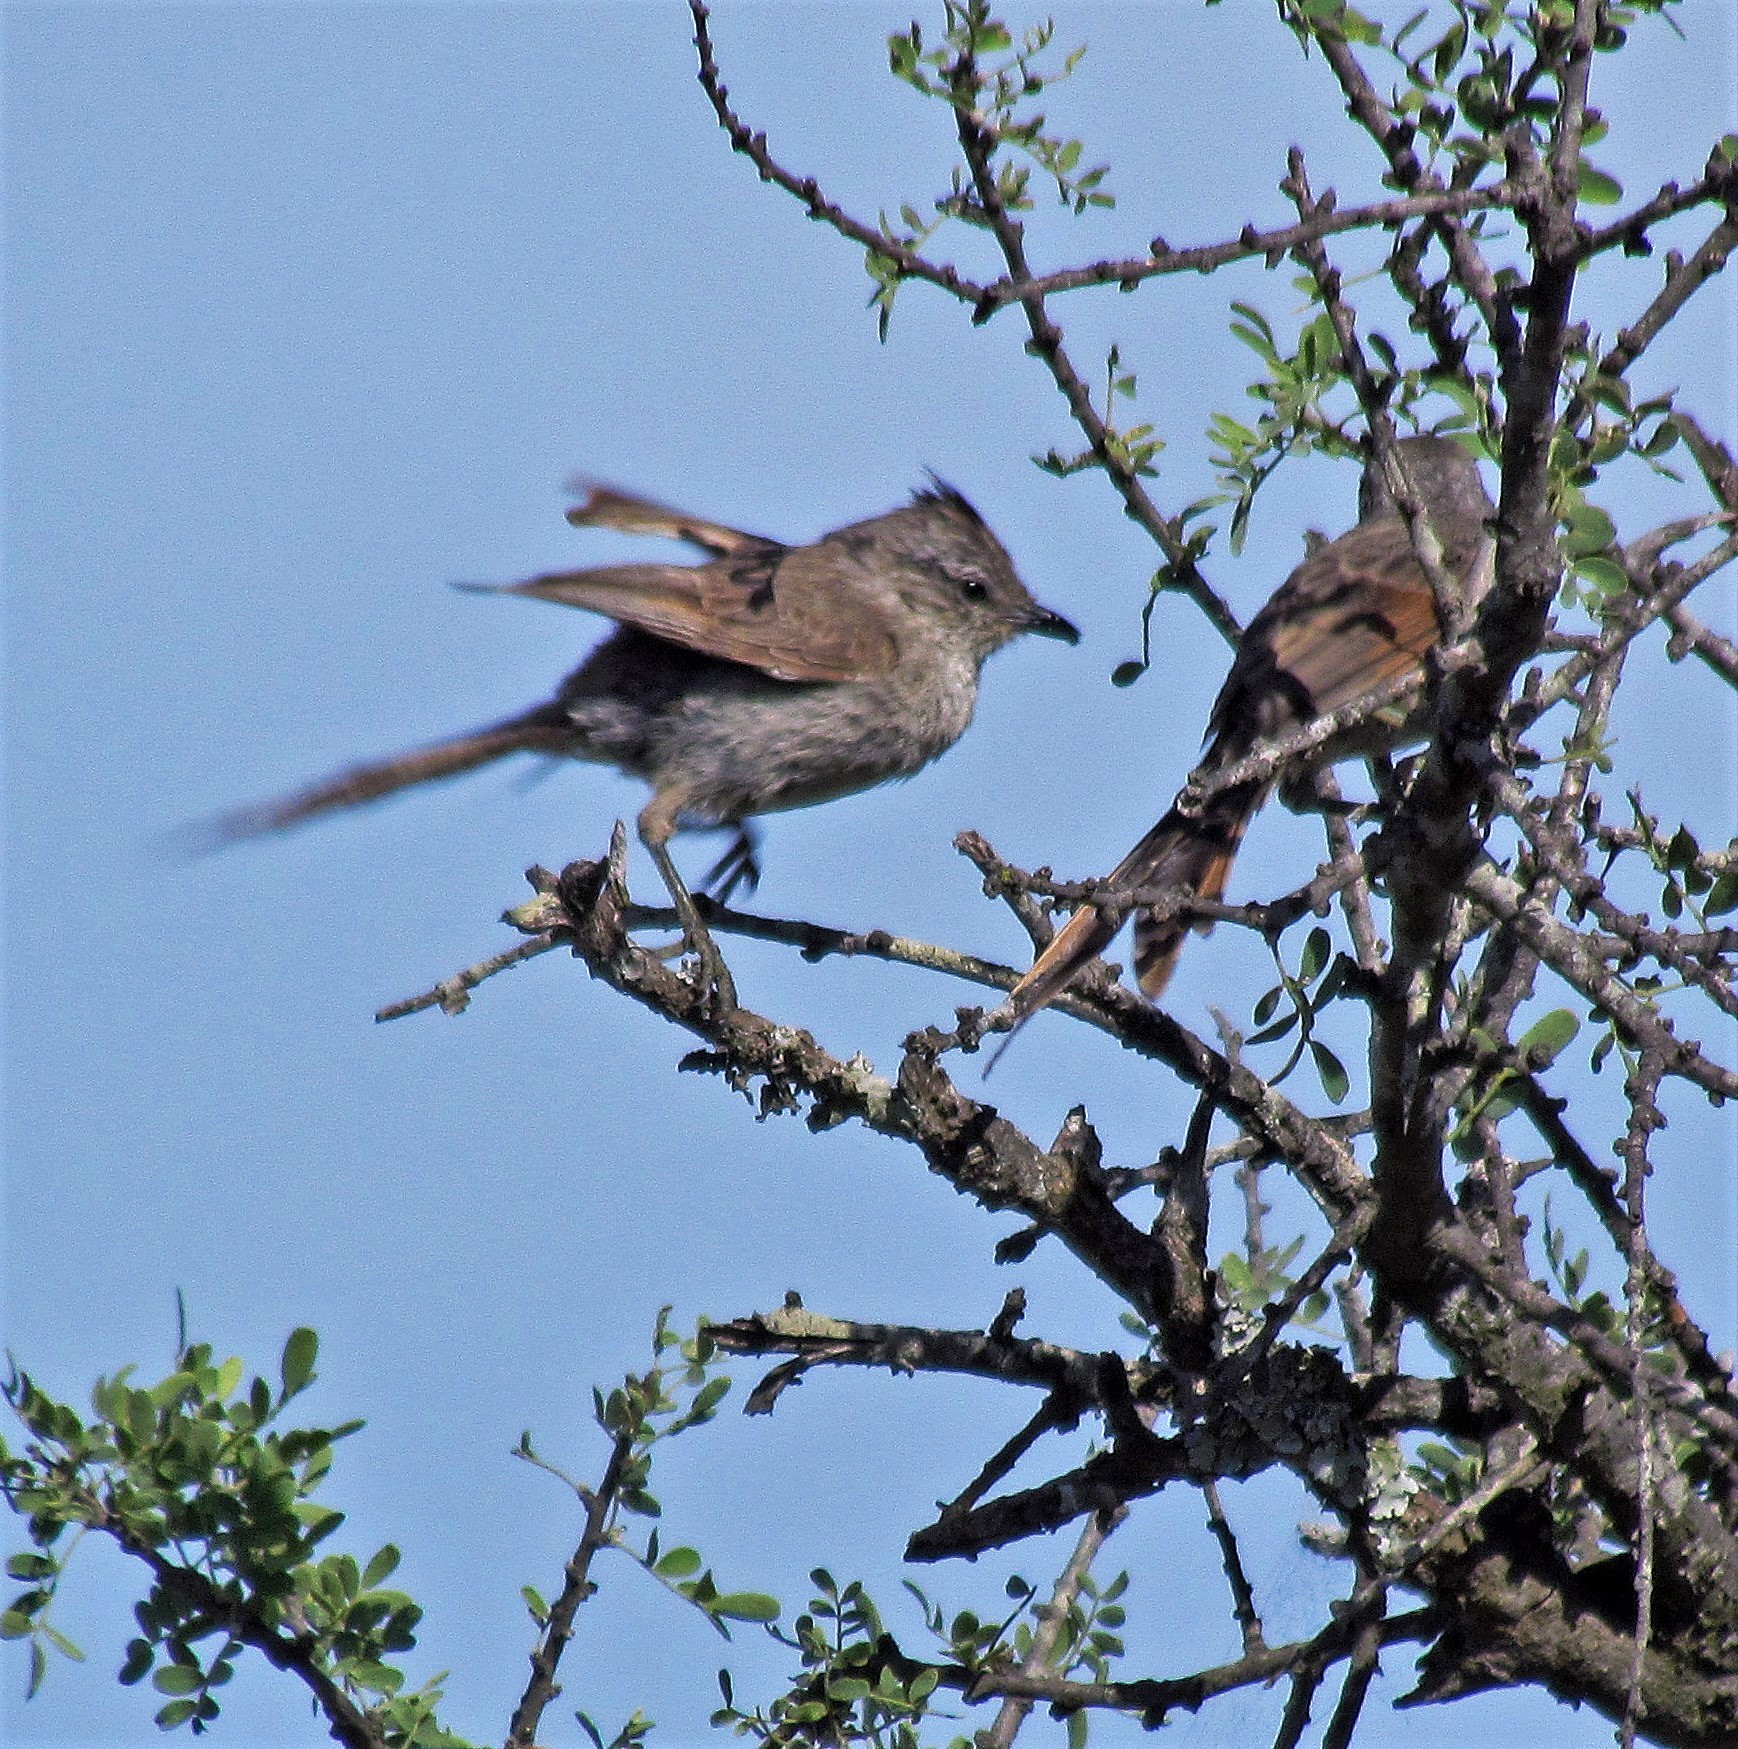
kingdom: Animalia
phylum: Chordata
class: Aves
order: Passeriformes
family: Furnariidae
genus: Leptasthenura
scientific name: Leptasthenura platensis
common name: Tufted tit-spinetail
